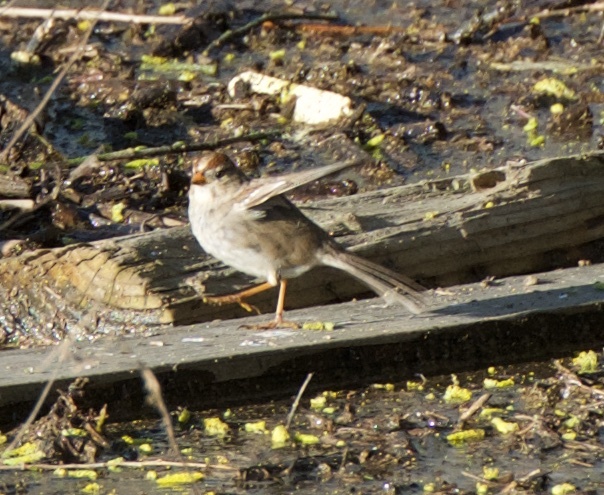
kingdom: Animalia
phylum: Chordata
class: Aves
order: Passeriformes
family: Passerellidae
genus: Zonotrichia
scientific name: Zonotrichia leucophrys
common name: White-crowned sparrow
